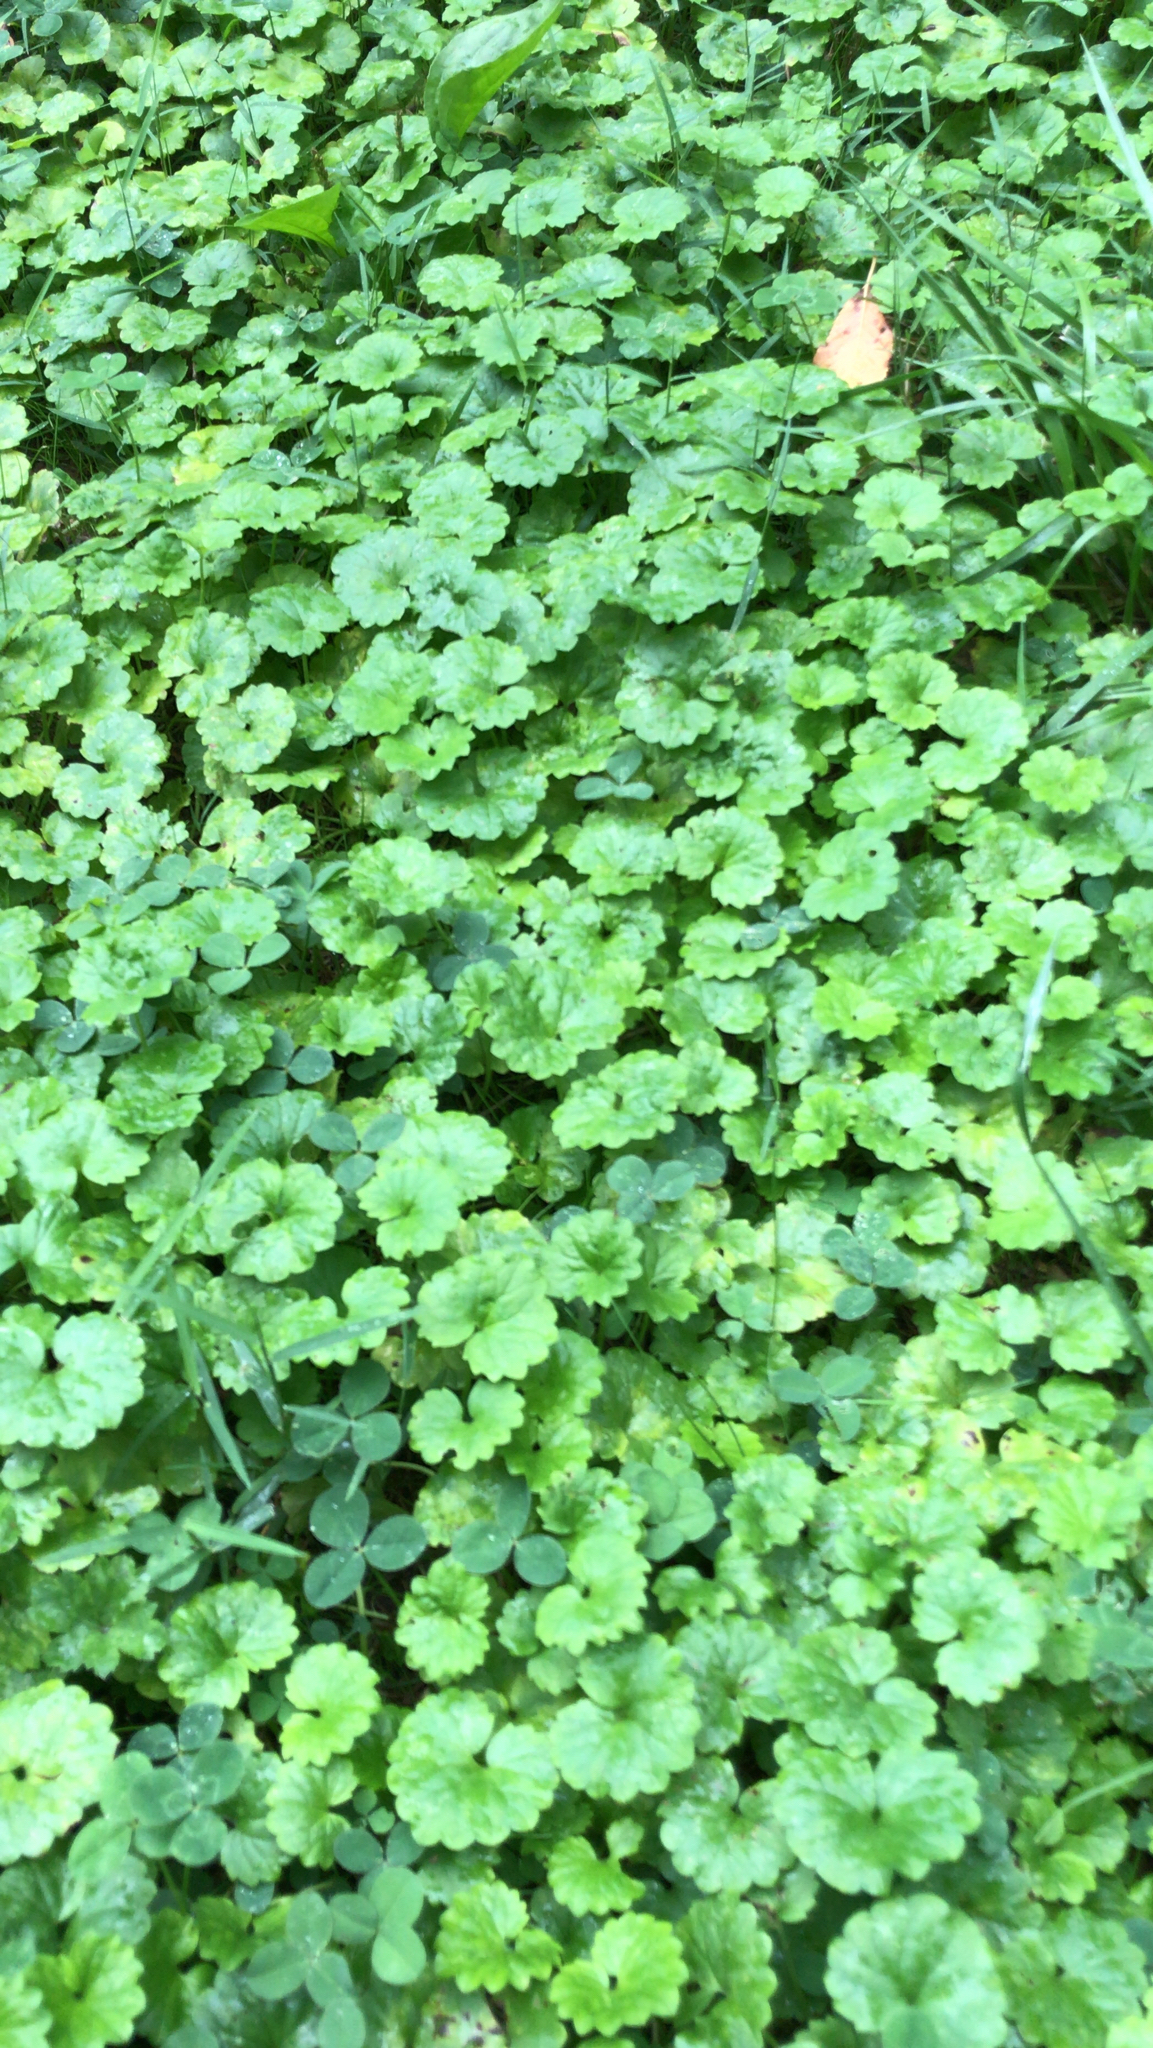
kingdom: Plantae
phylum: Tracheophyta
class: Magnoliopsida
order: Lamiales
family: Lamiaceae
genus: Glechoma
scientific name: Glechoma hederacea
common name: Ground ivy
